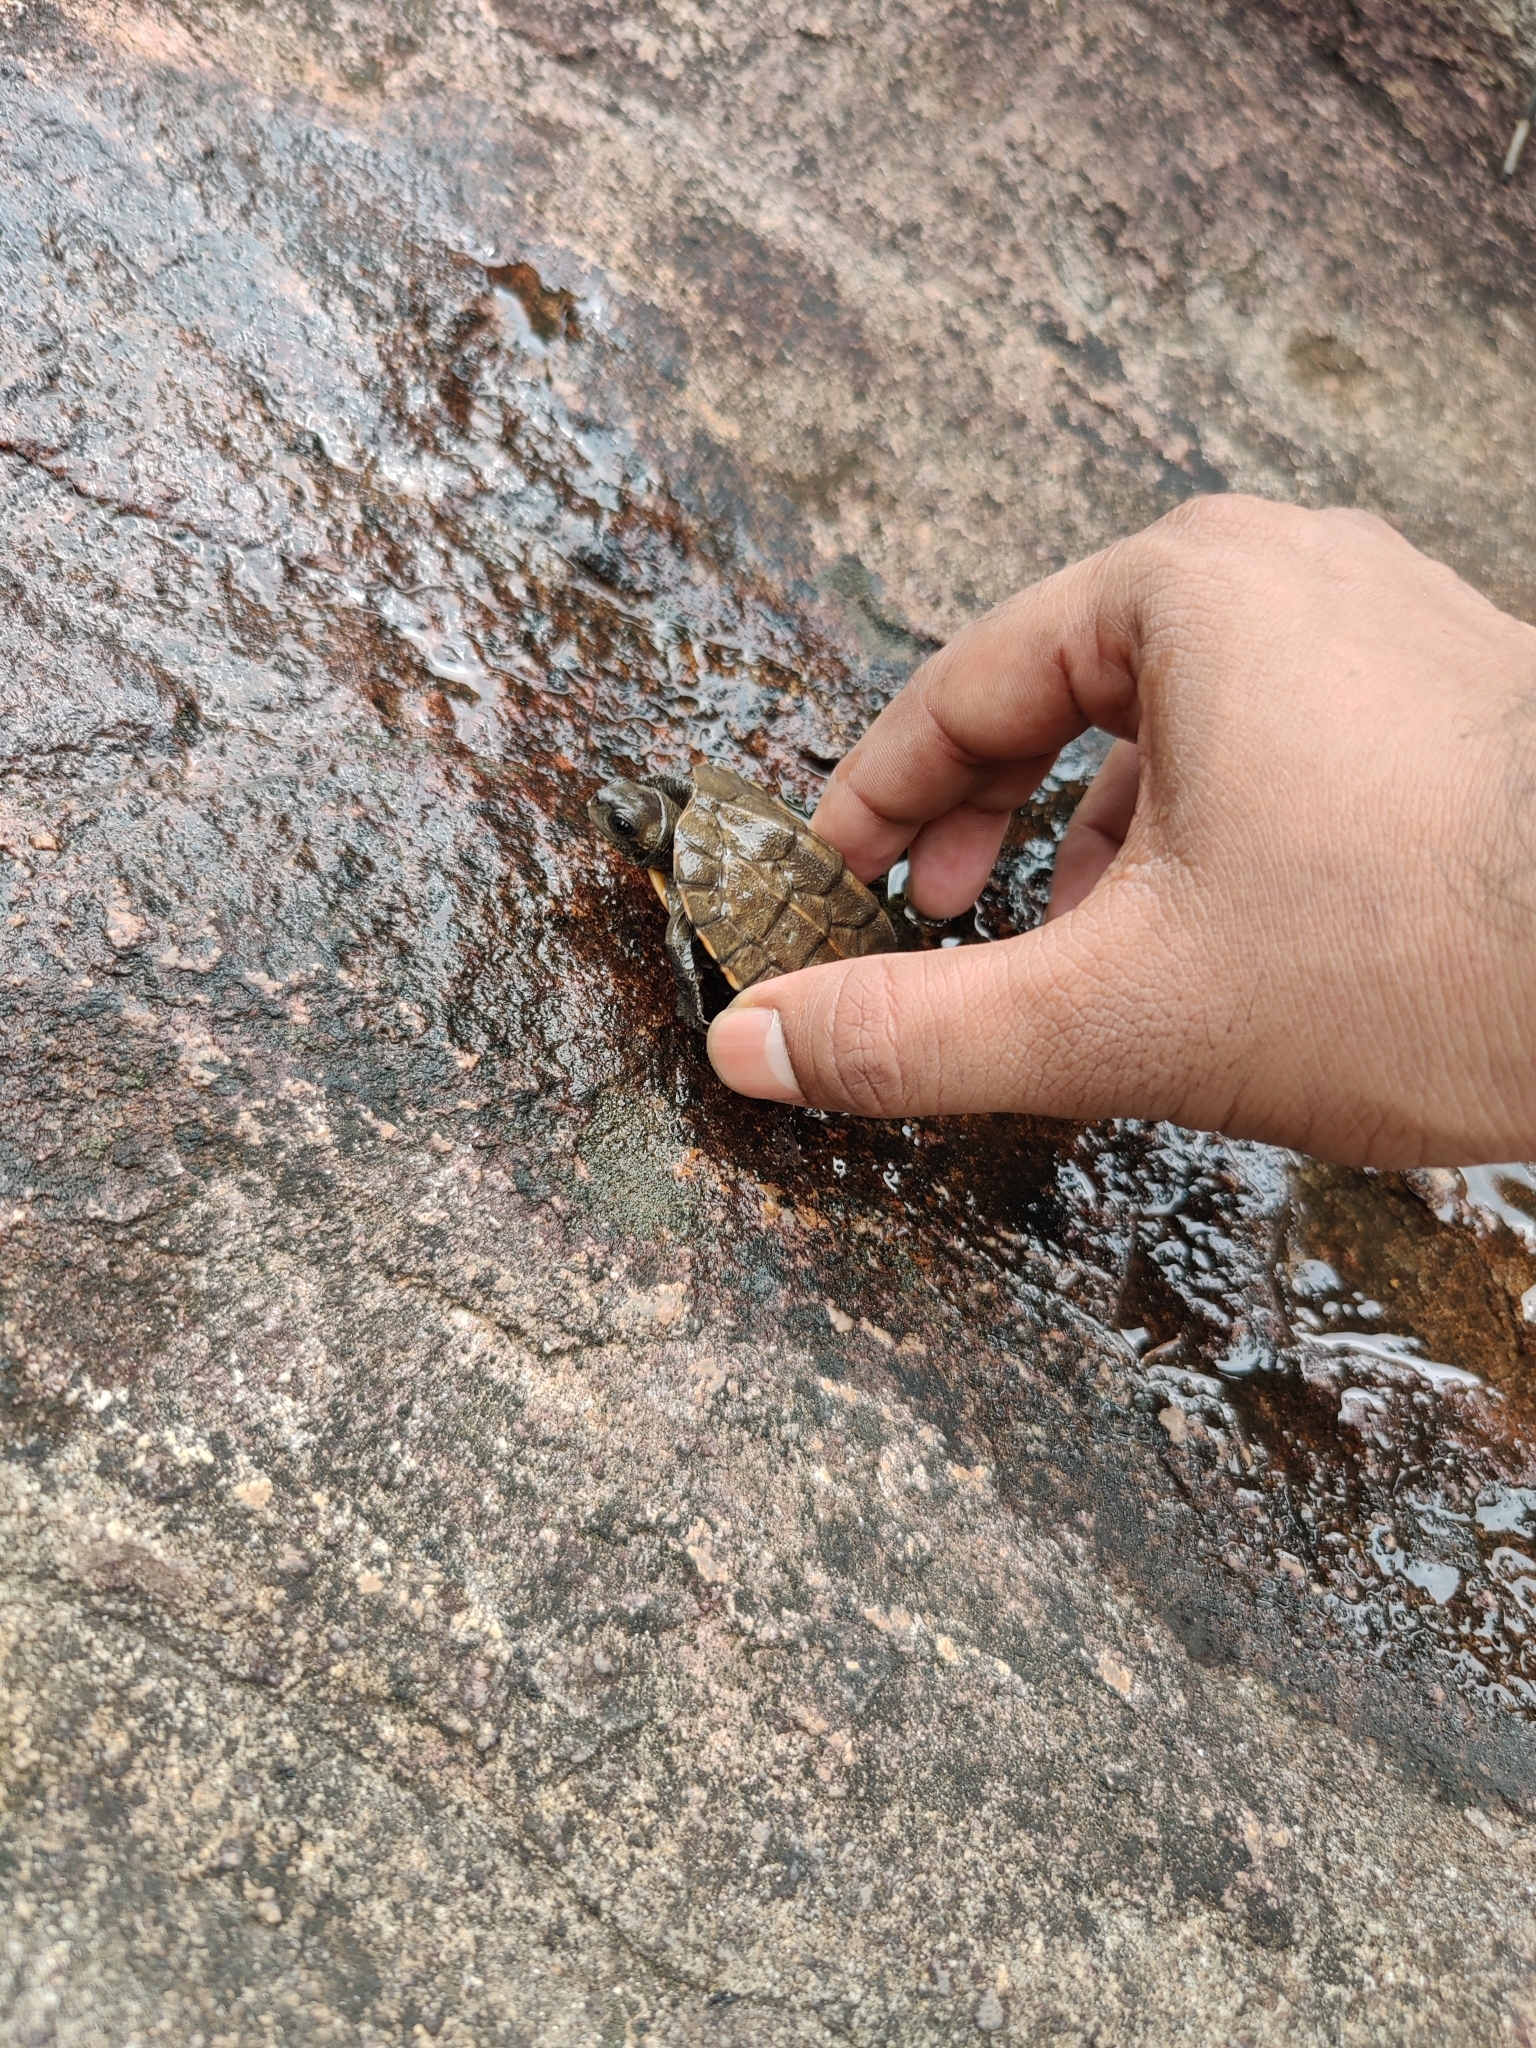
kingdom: Animalia
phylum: Chordata
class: Testudines
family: Geoemydidae
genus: Melanochelys
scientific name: Melanochelys trijuga
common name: Indian black turtle
